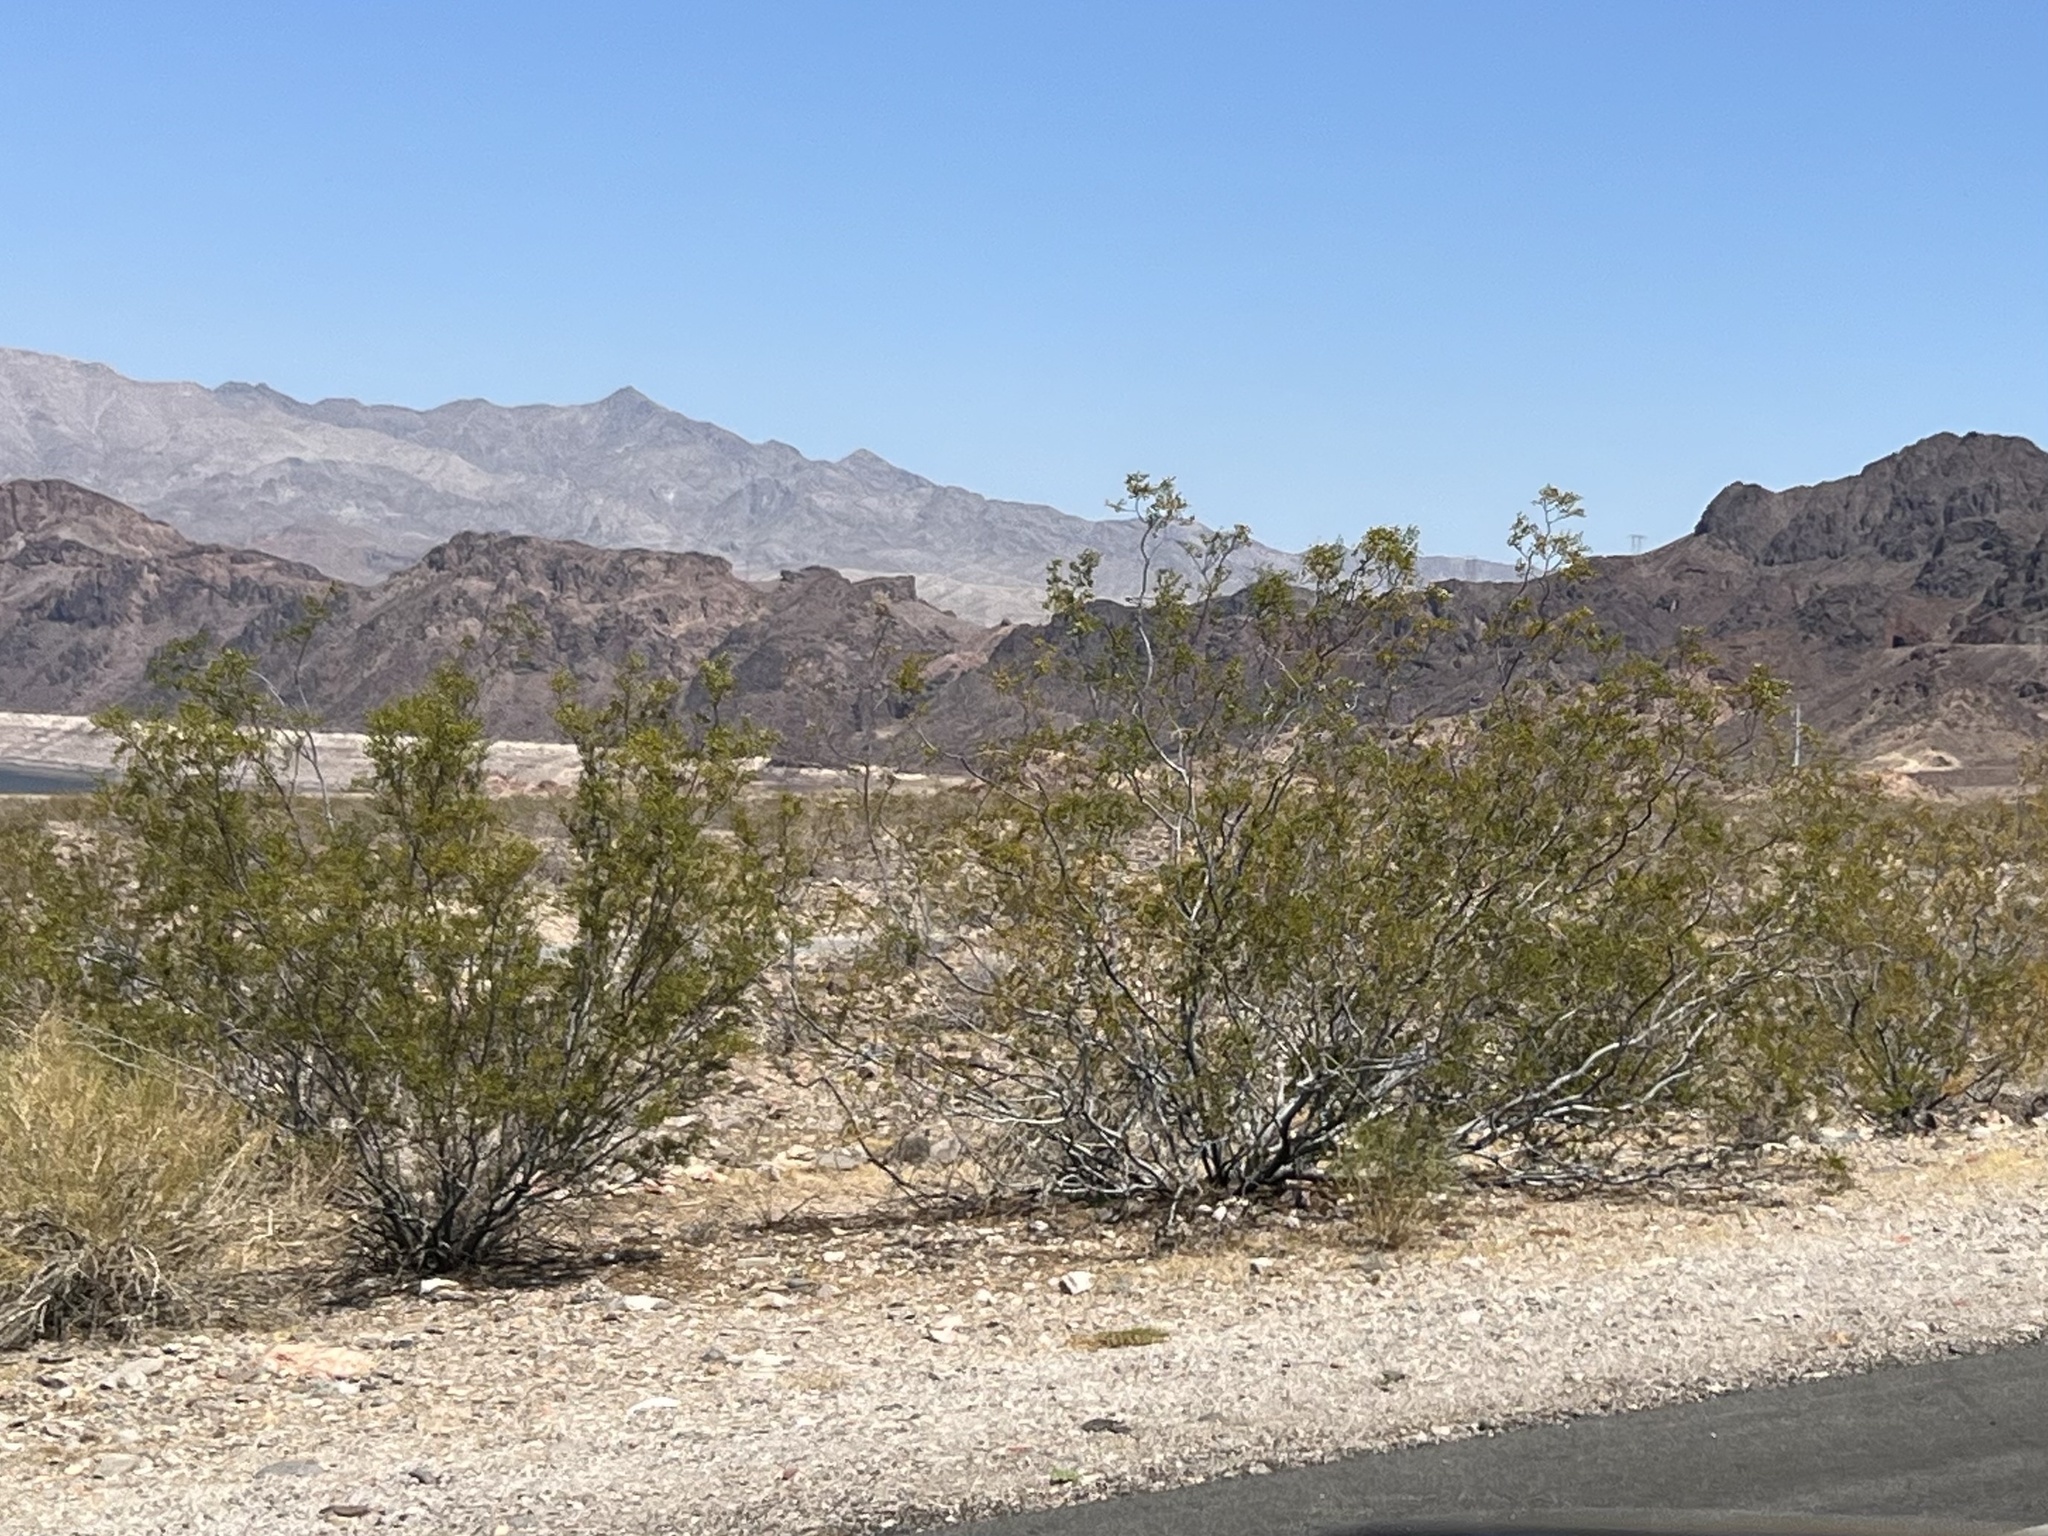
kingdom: Plantae
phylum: Tracheophyta
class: Magnoliopsida
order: Zygophyllales
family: Zygophyllaceae
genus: Larrea
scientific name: Larrea tridentata
